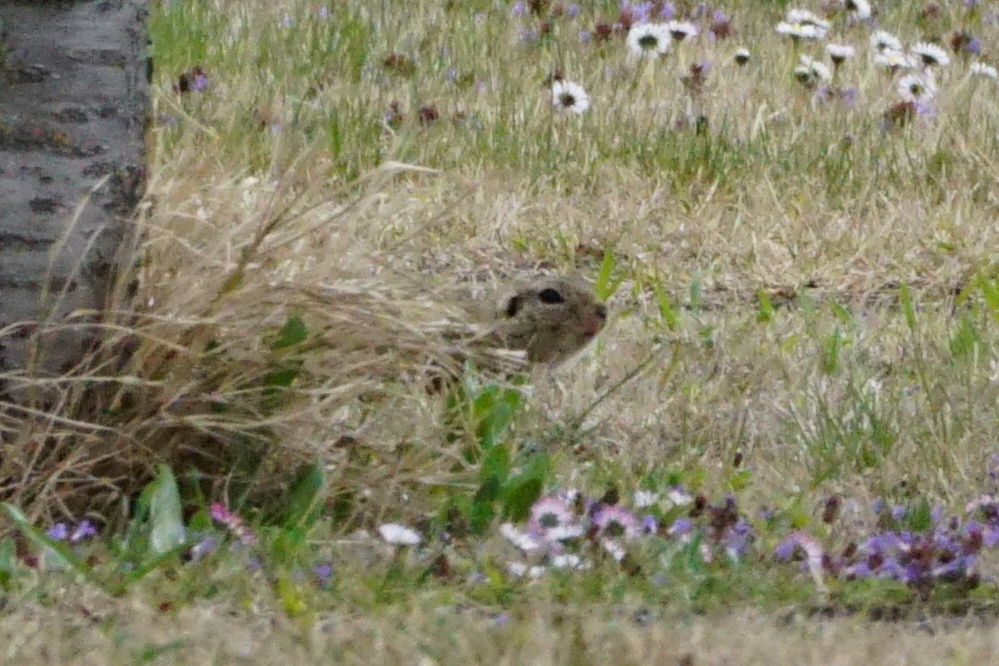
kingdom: Animalia
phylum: Chordata
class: Mammalia
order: Rodentia
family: Sciuridae
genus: Spermophilus
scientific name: Spermophilus citellus
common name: European ground squirrel
